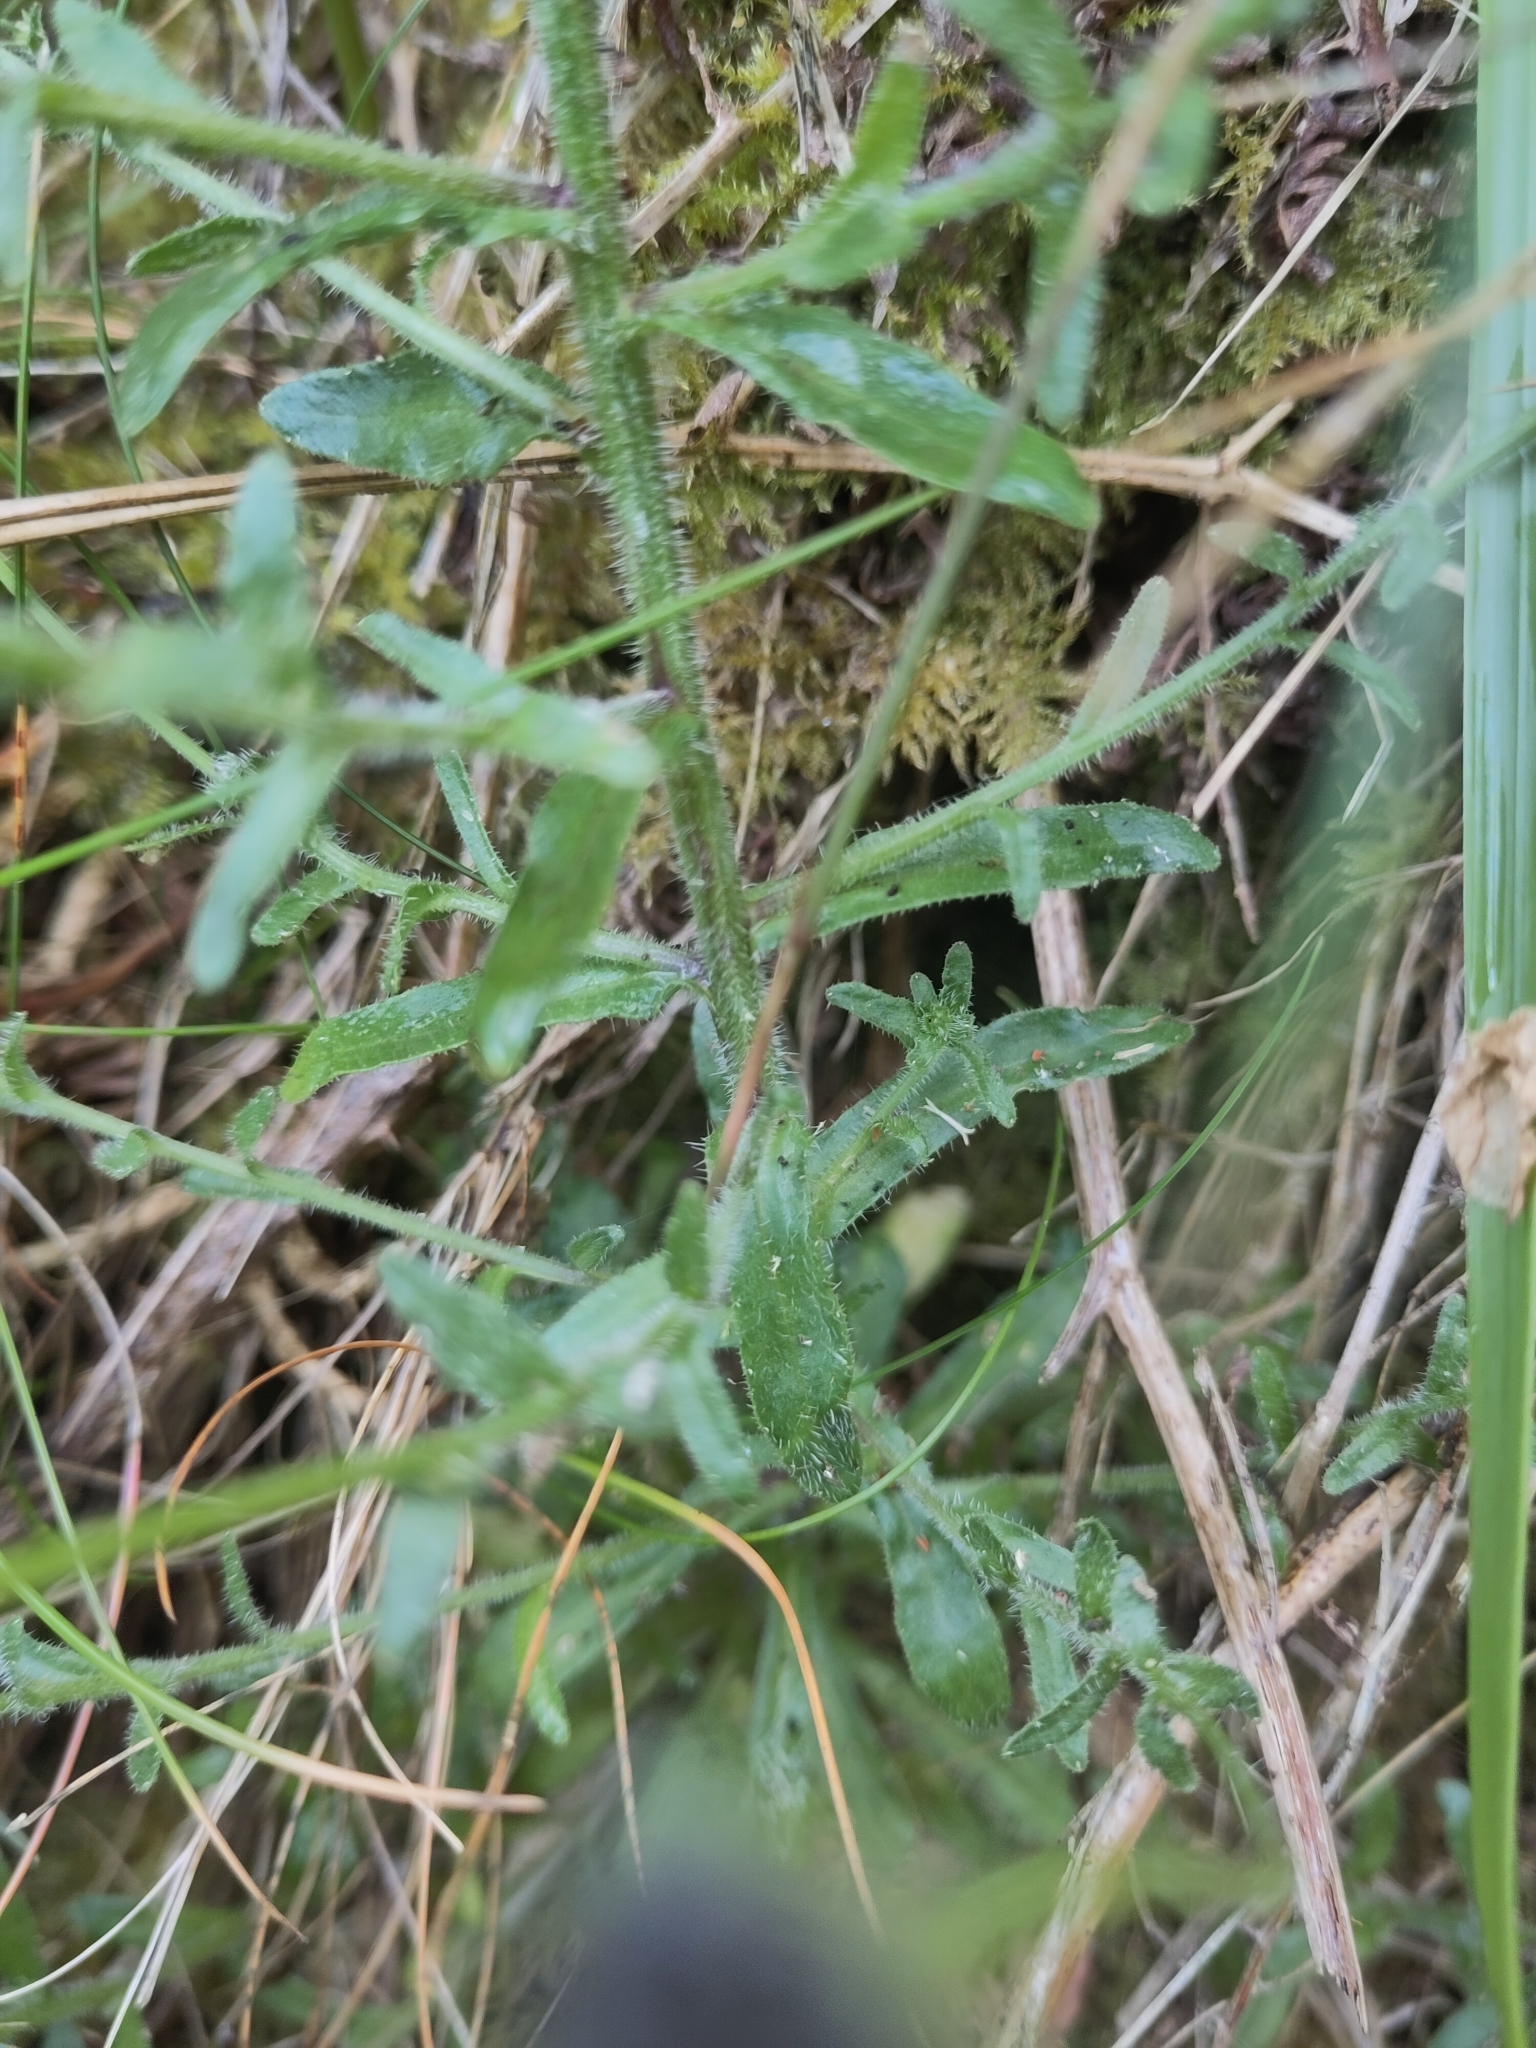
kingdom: Plantae
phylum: Tracheophyta
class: Magnoliopsida
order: Asterales
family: Campanulaceae
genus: Jasione
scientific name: Jasione montana
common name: Sheep's-bit
